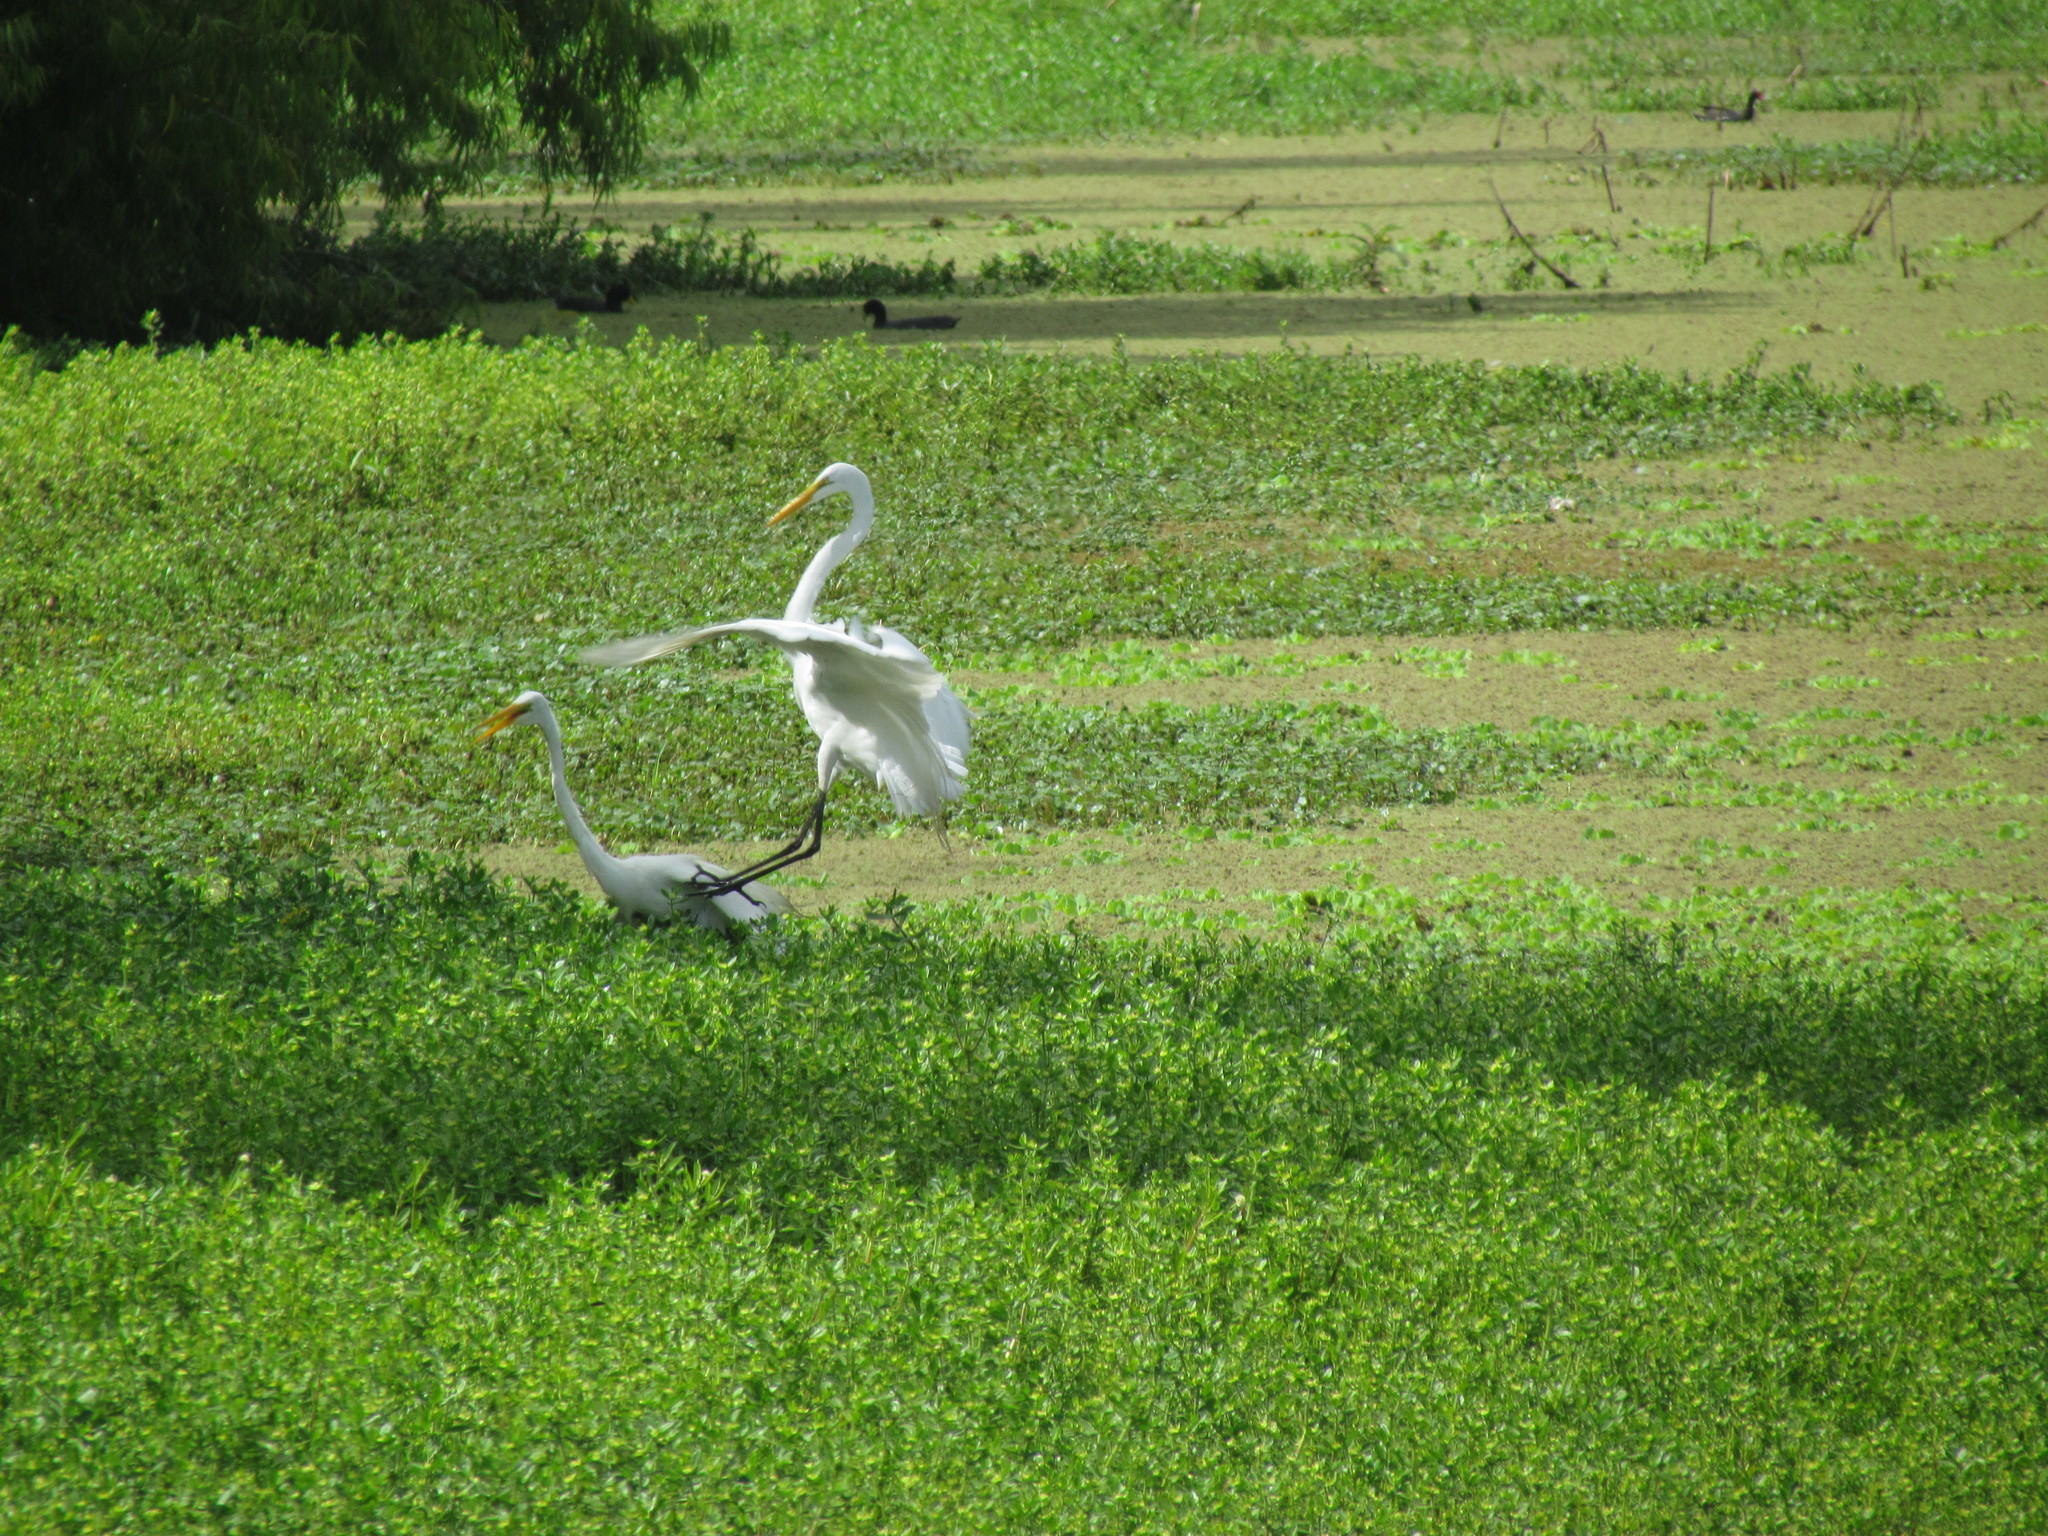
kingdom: Animalia
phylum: Chordata
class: Aves
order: Pelecaniformes
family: Ardeidae
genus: Ardea
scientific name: Ardea alba
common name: Great egret
